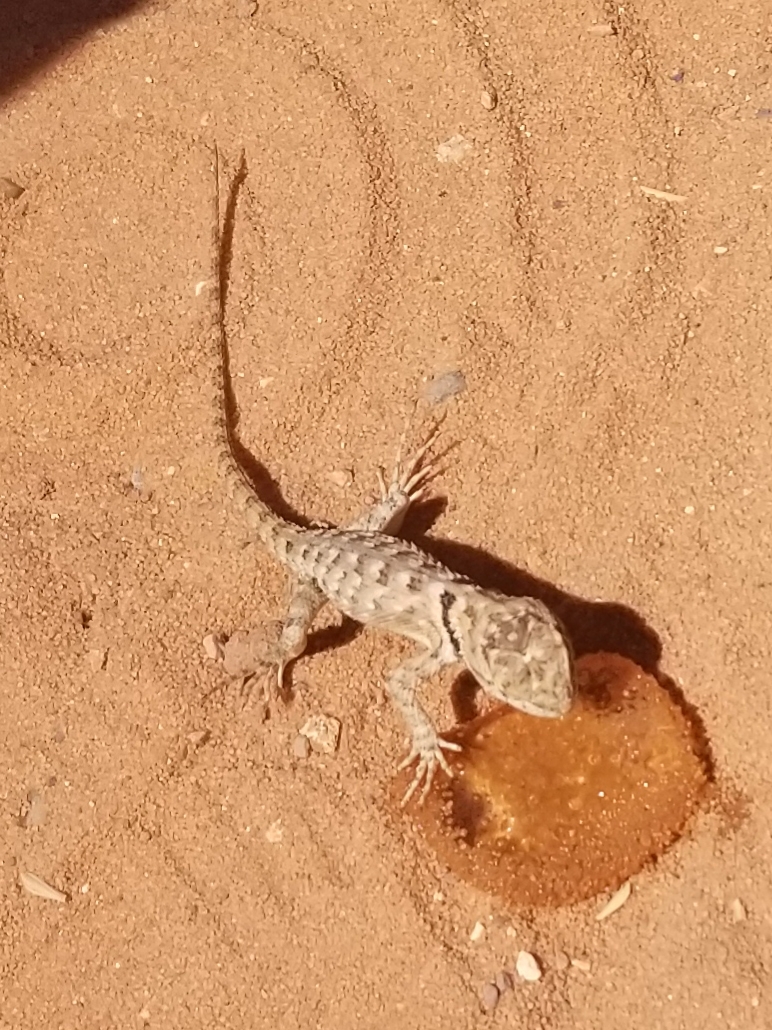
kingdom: Animalia
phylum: Chordata
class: Squamata
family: Phrynosomatidae
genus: Sceloporus
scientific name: Sceloporus magister
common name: Desert spiny lizard
